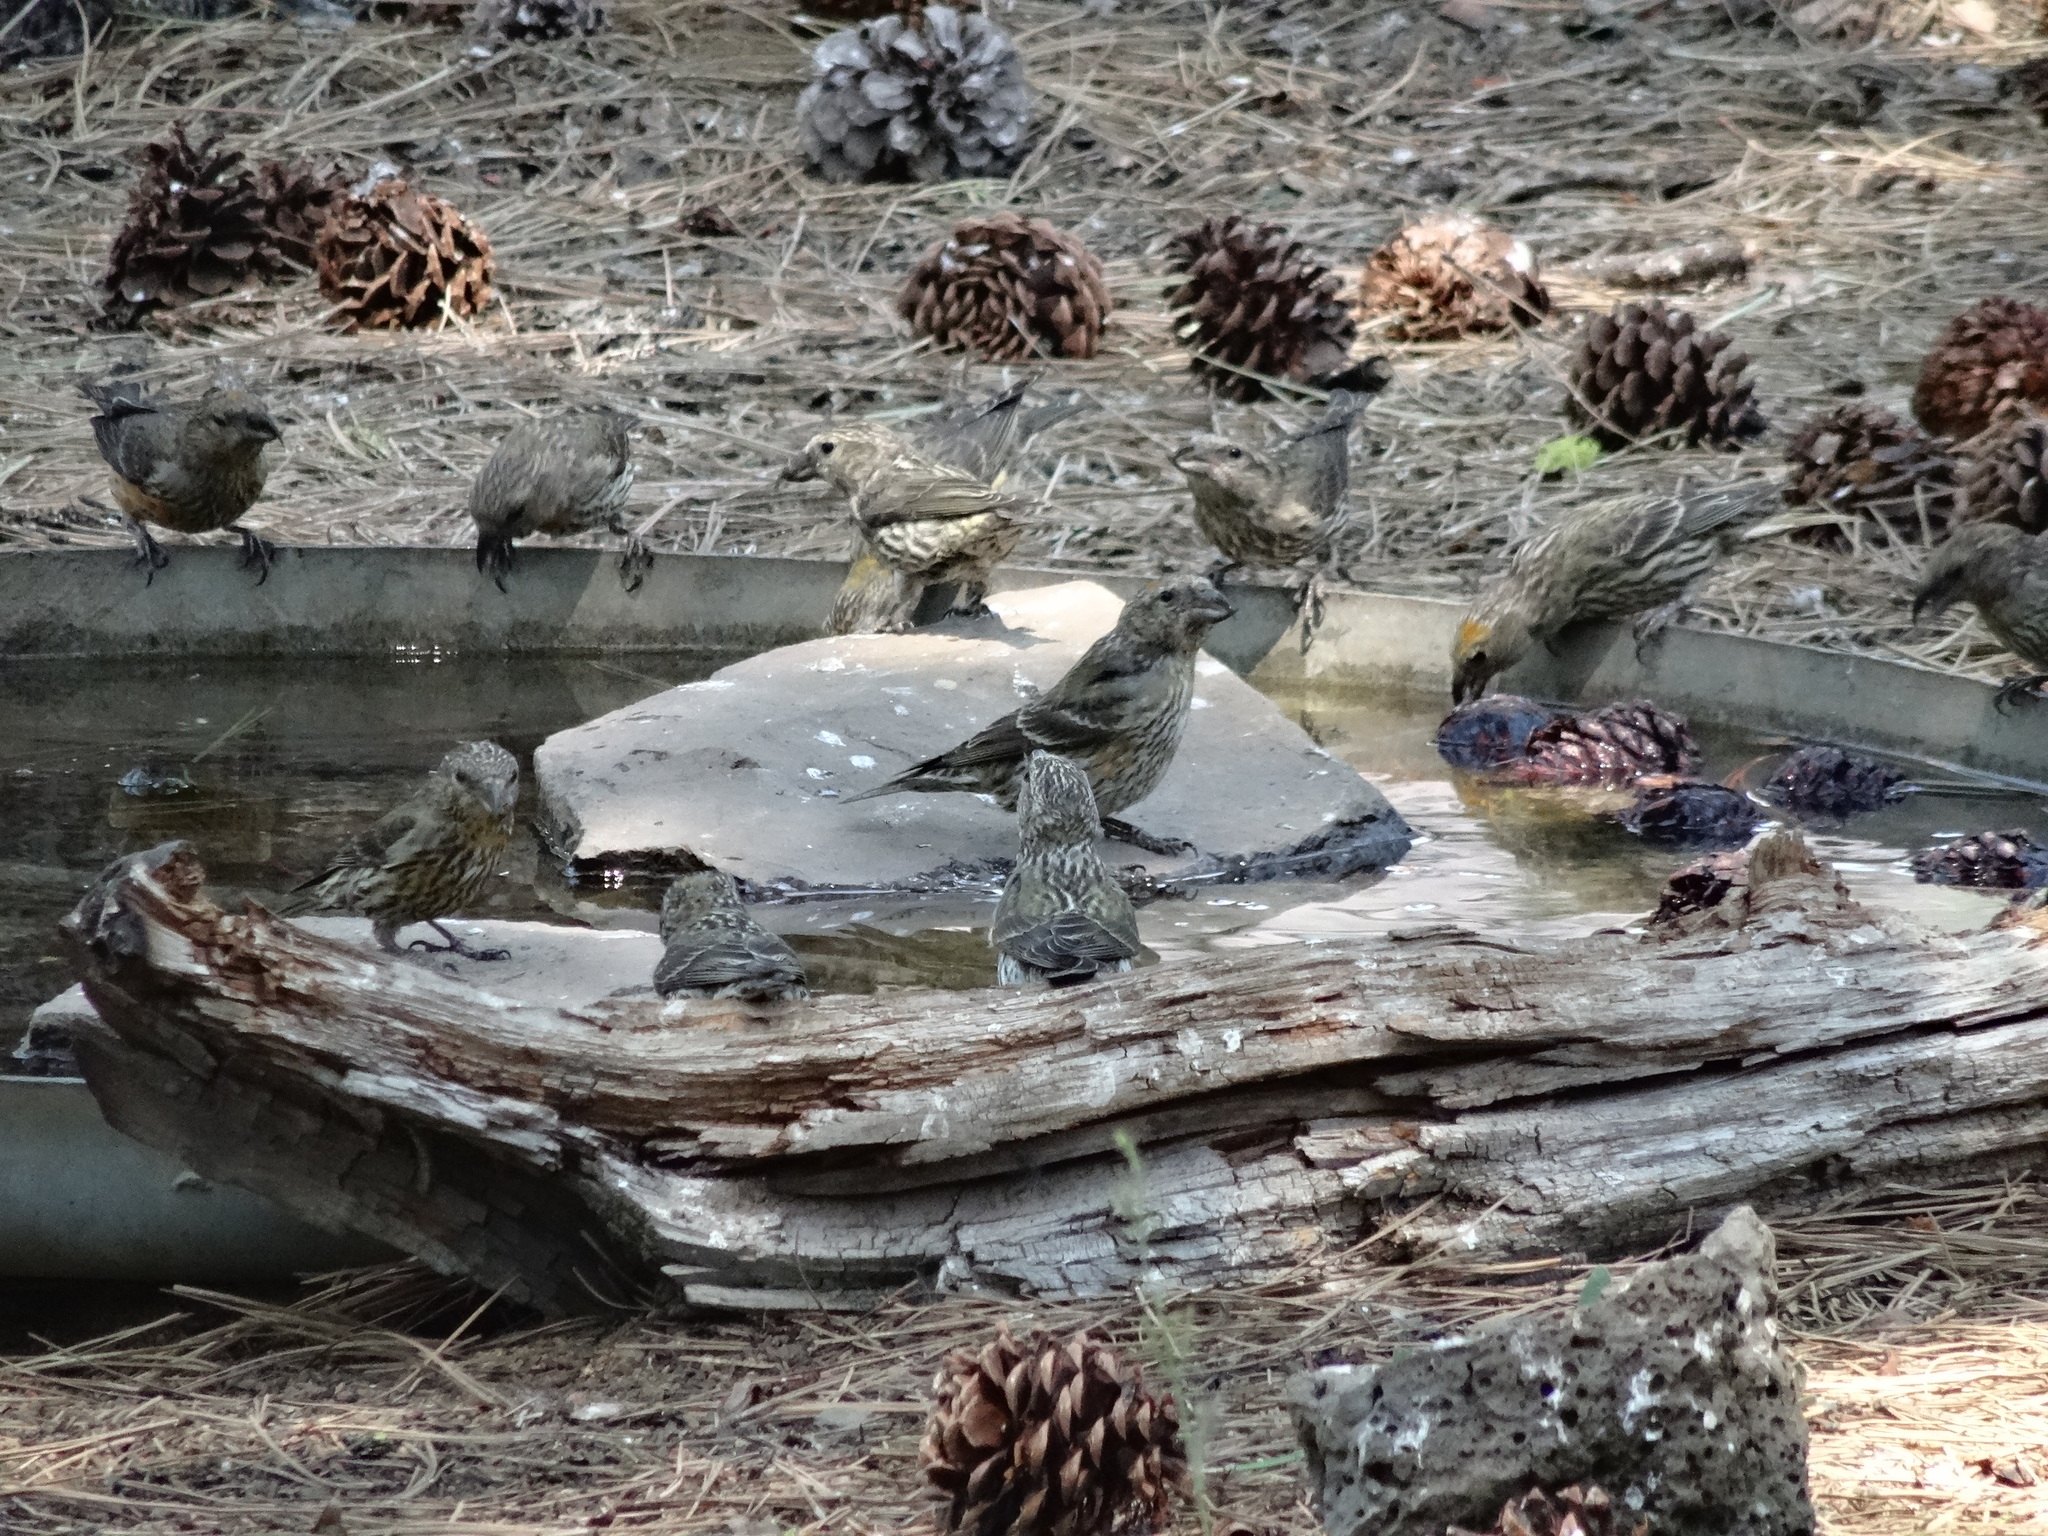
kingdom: Animalia
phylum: Chordata
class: Aves
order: Passeriformes
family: Fringillidae
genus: Loxia
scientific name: Loxia curvirostra
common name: Red crossbill
